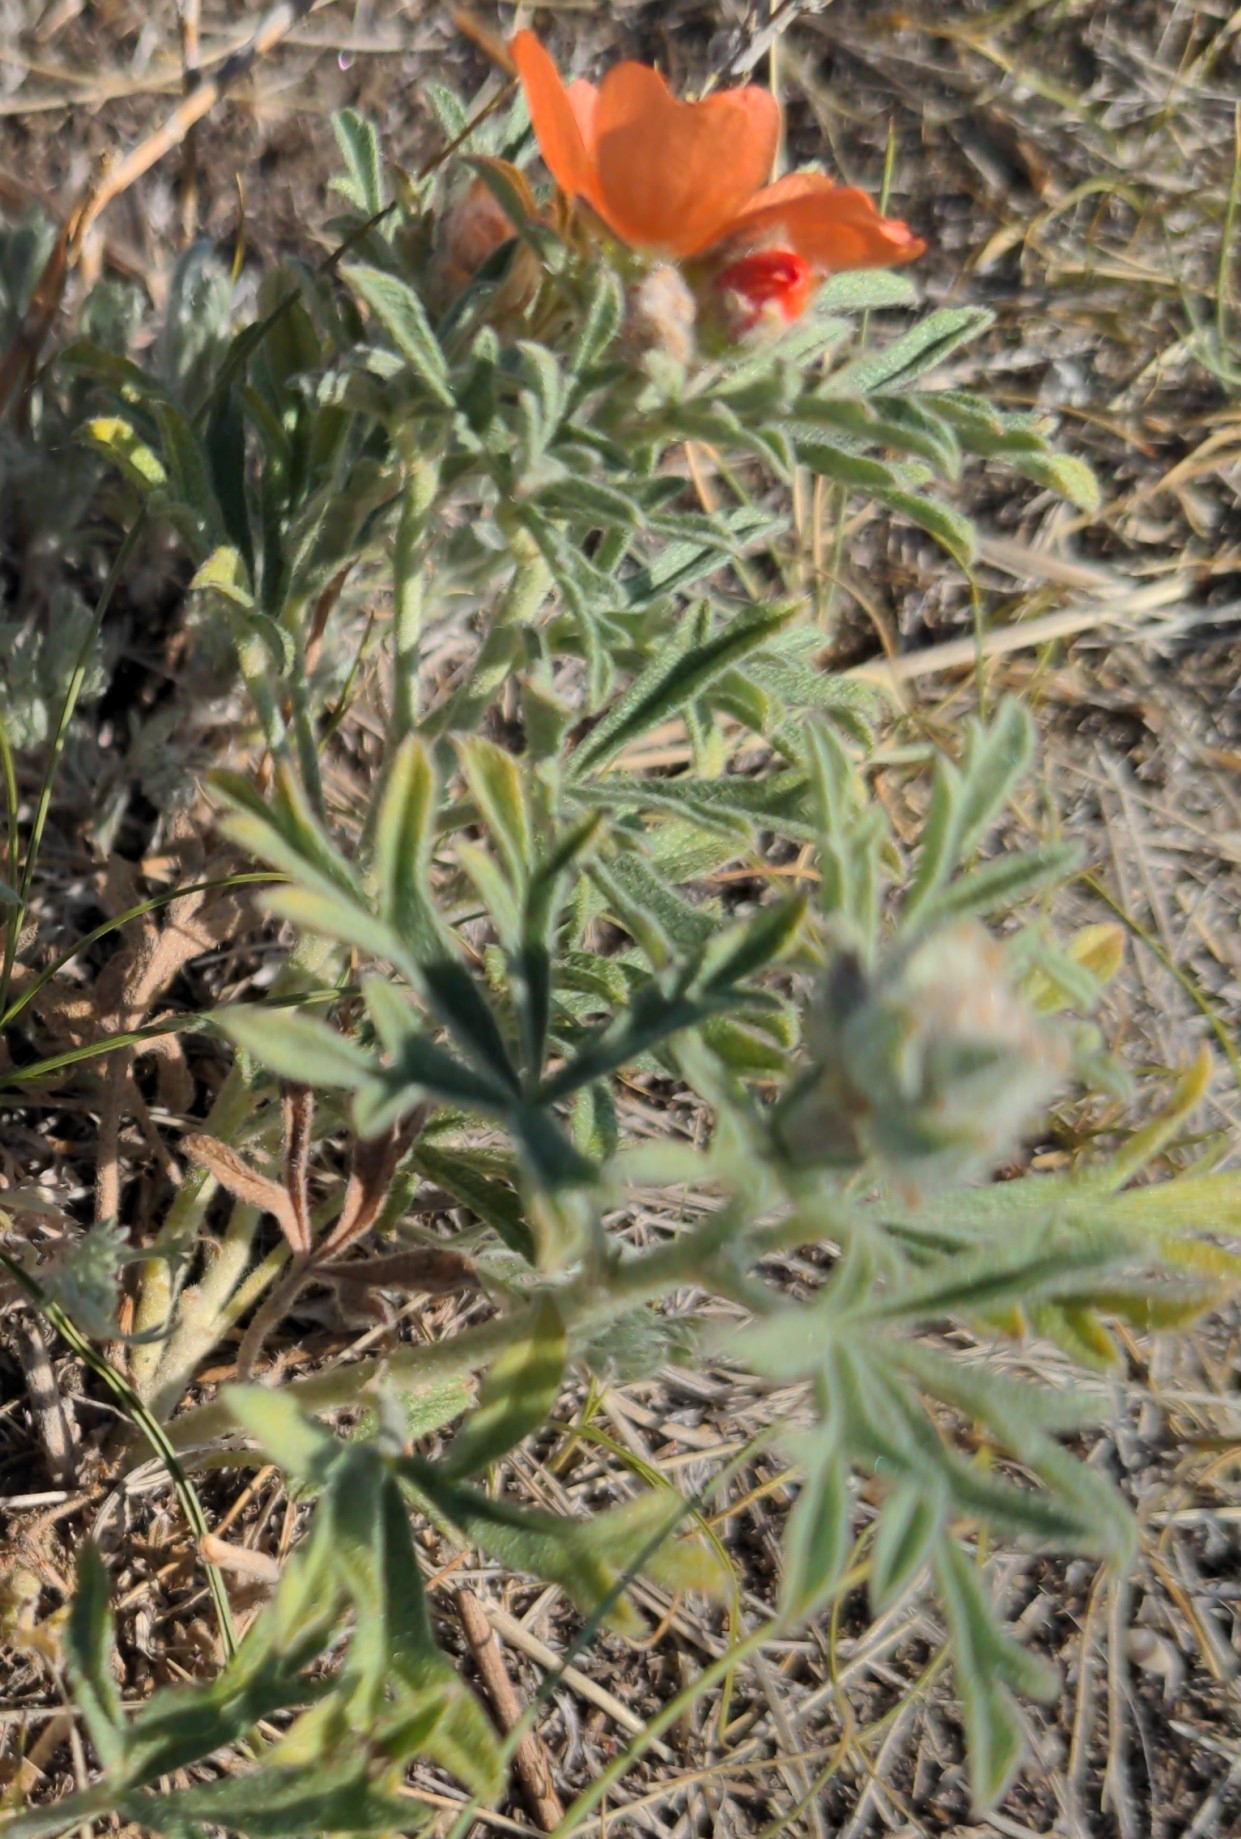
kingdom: Plantae
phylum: Tracheophyta
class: Magnoliopsida
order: Malvales
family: Malvaceae
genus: Sphaeralcea
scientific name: Sphaeralcea coccinea
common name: Moss-rose
